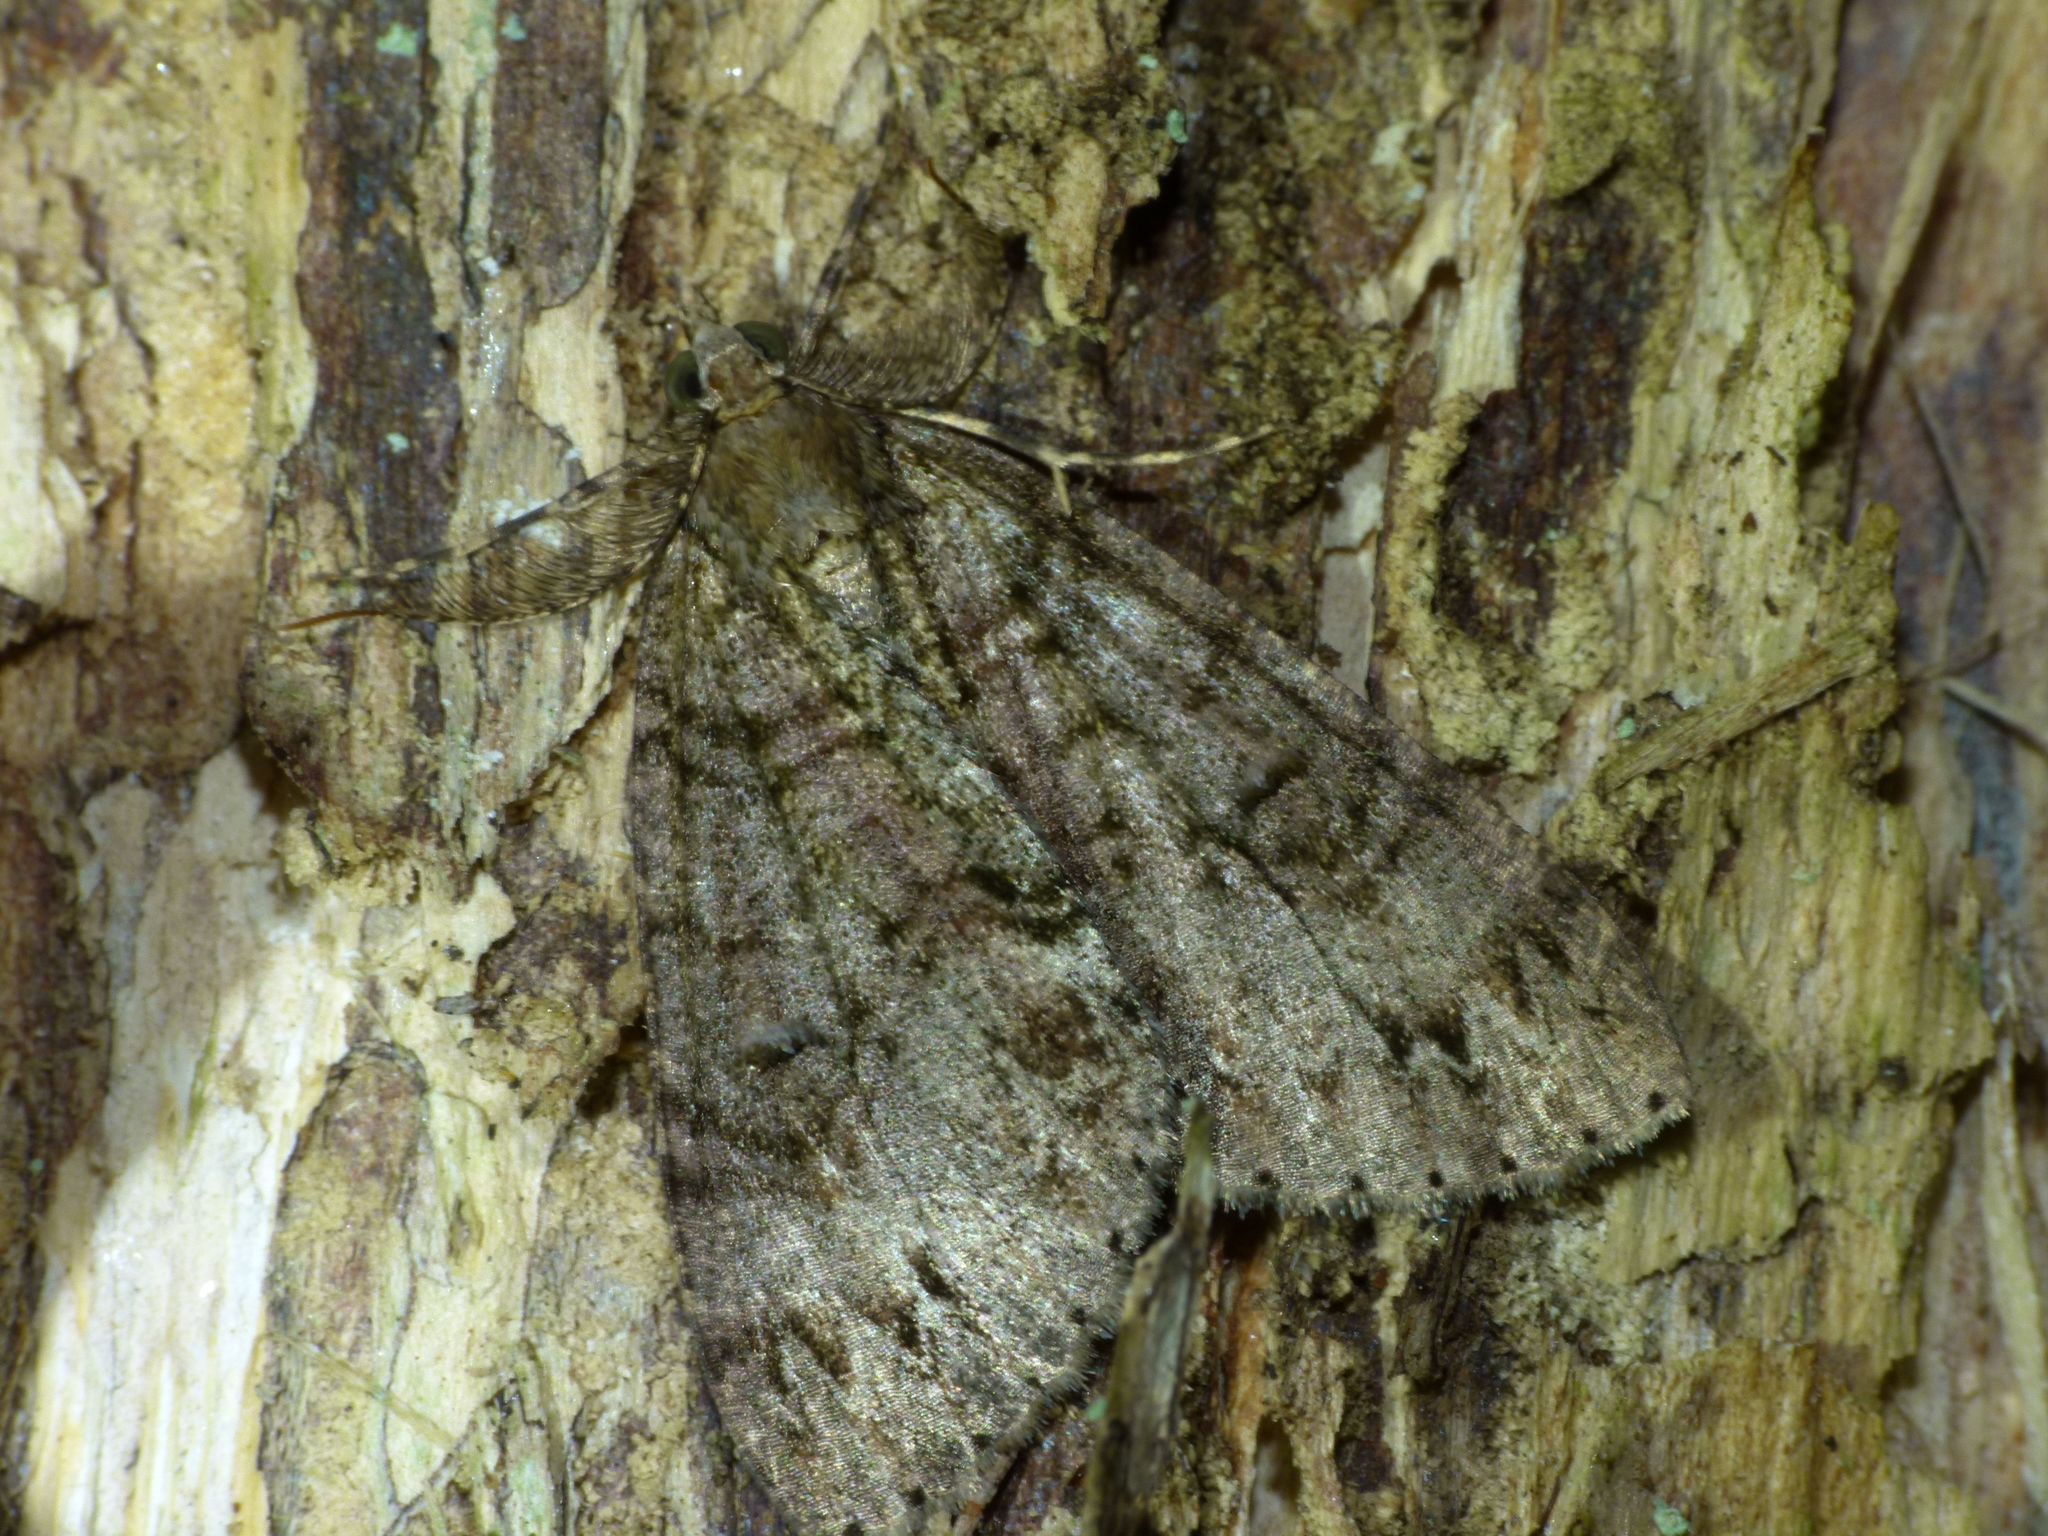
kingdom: Animalia
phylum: Arthropoda
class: Insecta
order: Lepidoptera
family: Geometridae
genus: Pseudocoremia
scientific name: Pseudocoremia suavis
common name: Common forest looper
